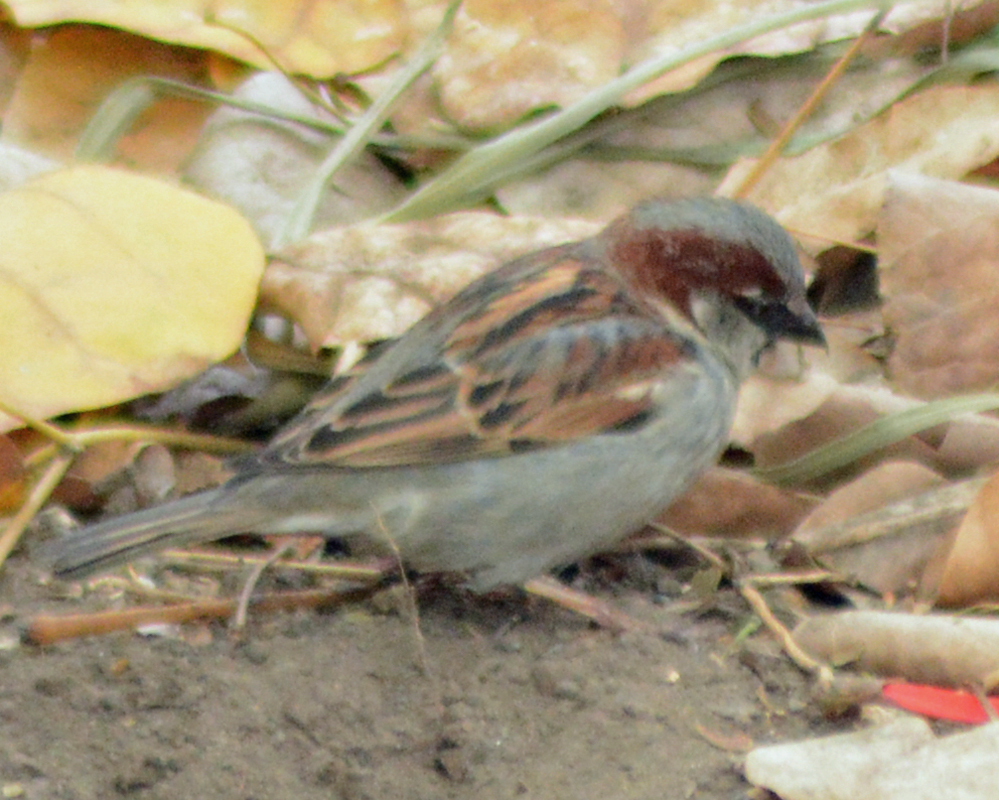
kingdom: Animalia
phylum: Chordata
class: Aves
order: Passeriformes
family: Passeridae
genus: Passer
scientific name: Passer domesticus
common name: House sparrow
